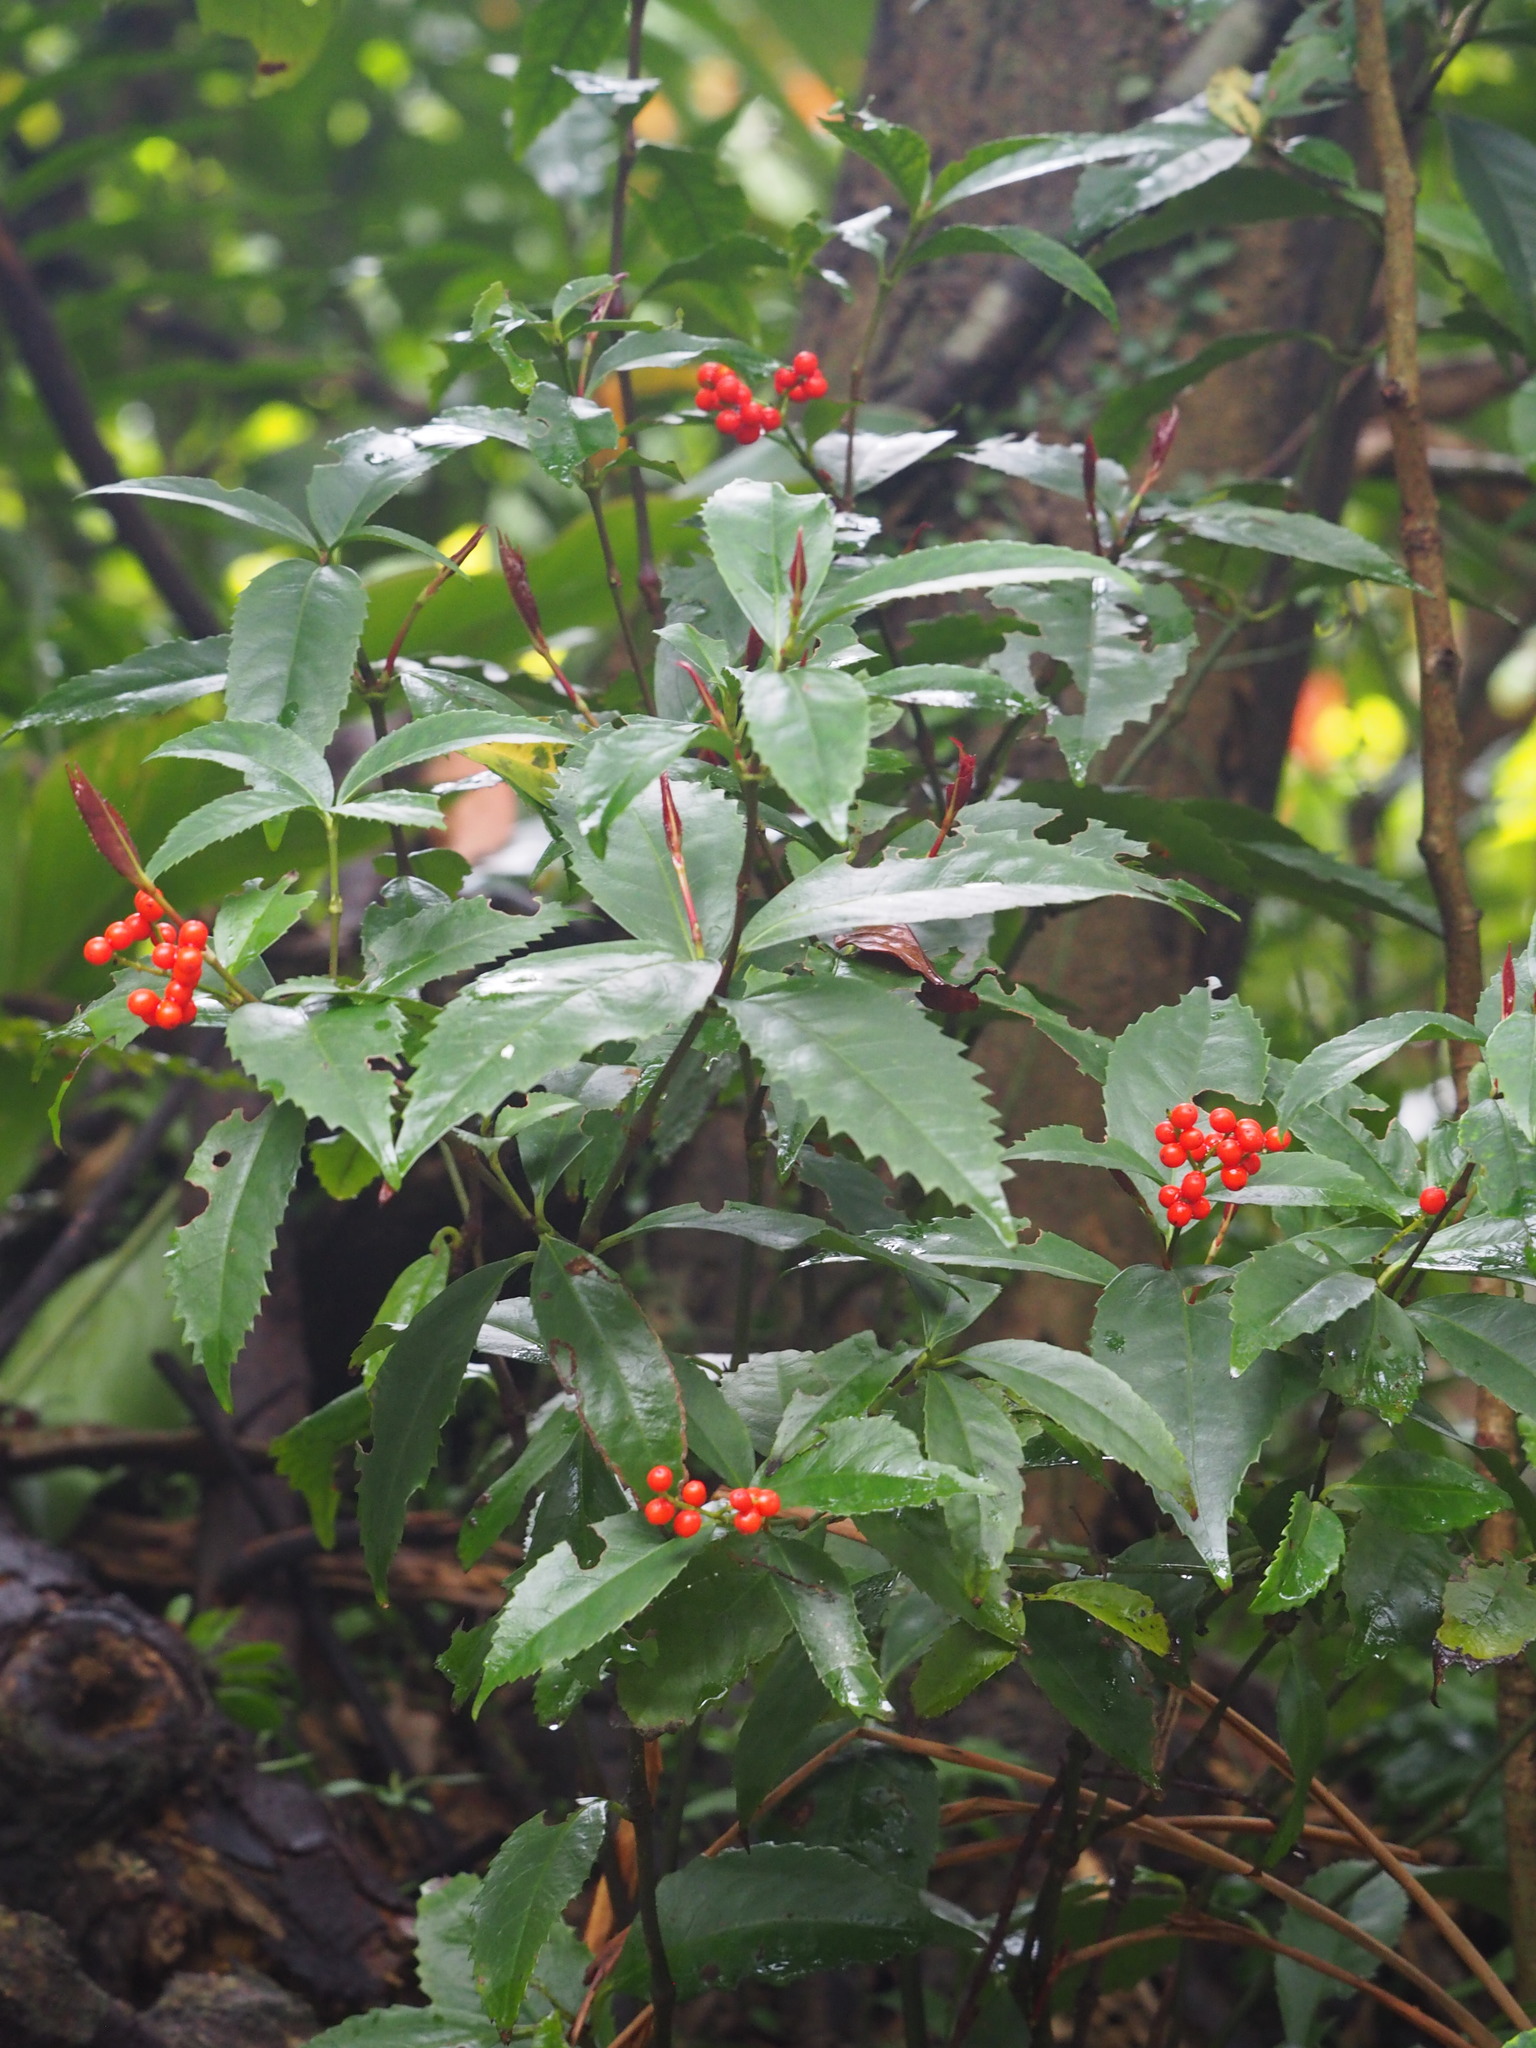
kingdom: Plantae
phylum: Tracheophyta
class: Magnoliopsida
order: Chloranthales
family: Chloranthaceae
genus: Sarcandra
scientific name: Sarcandra glabra
